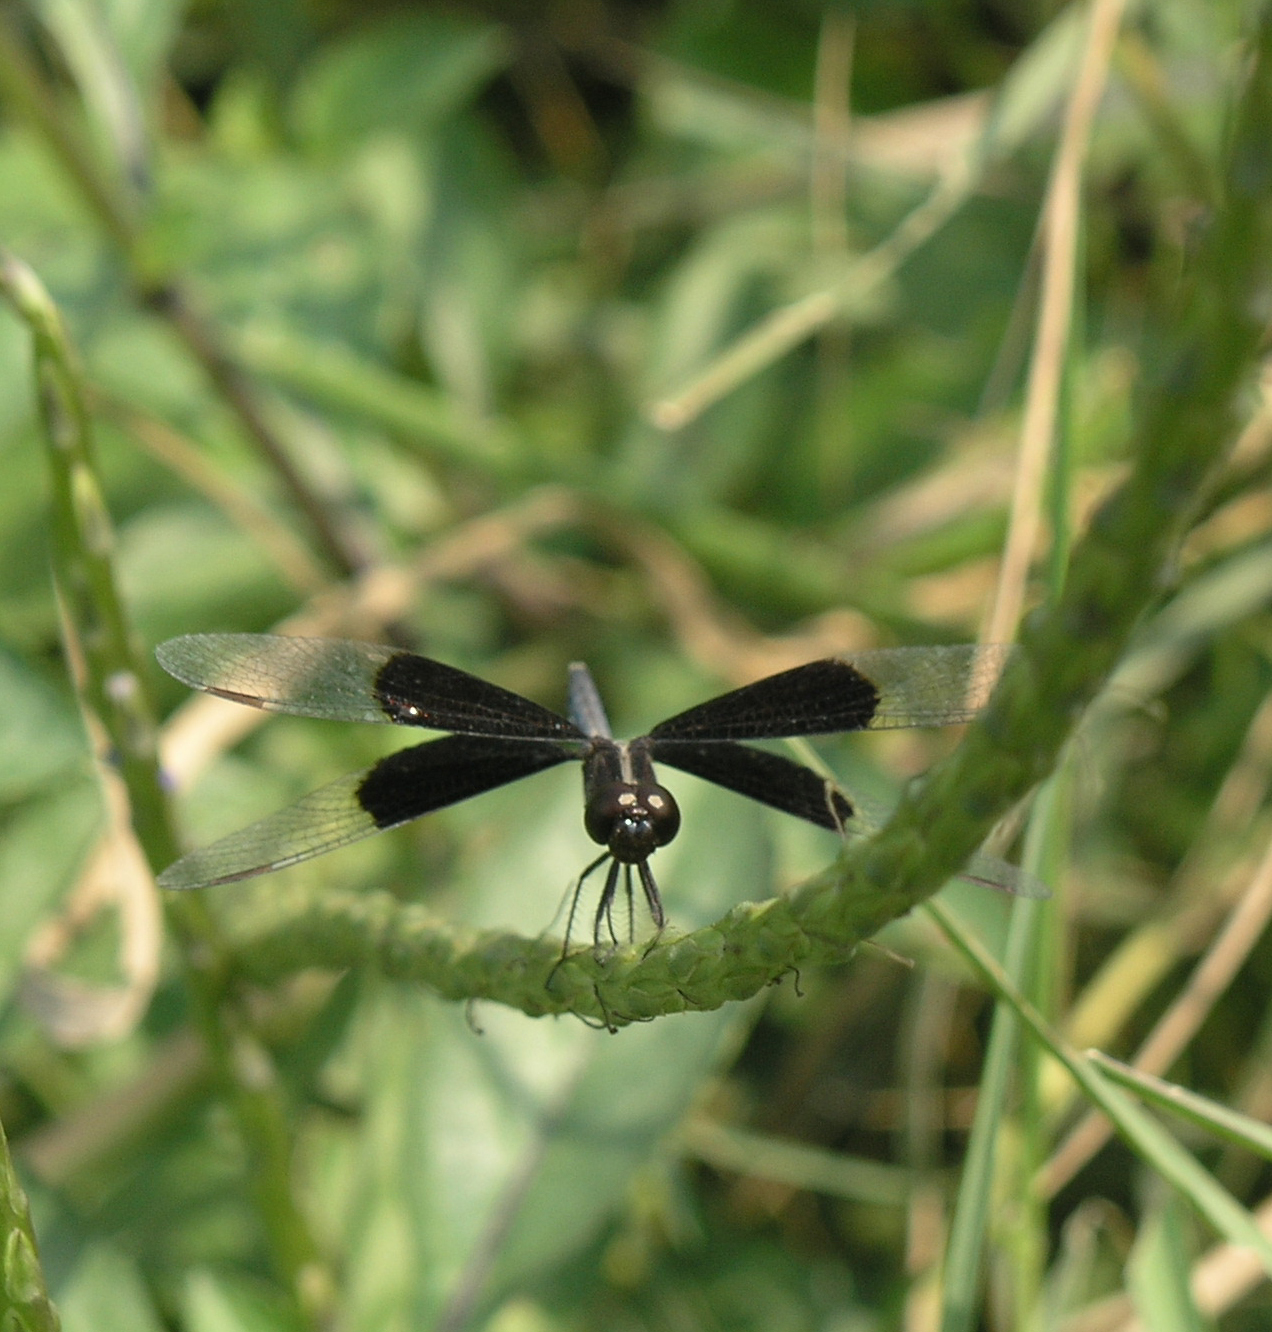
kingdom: Animalia
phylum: Arthropoda
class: Insecta
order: Odonata
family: Libellulidae
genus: Neurothemis
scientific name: Neurothemis tullia
